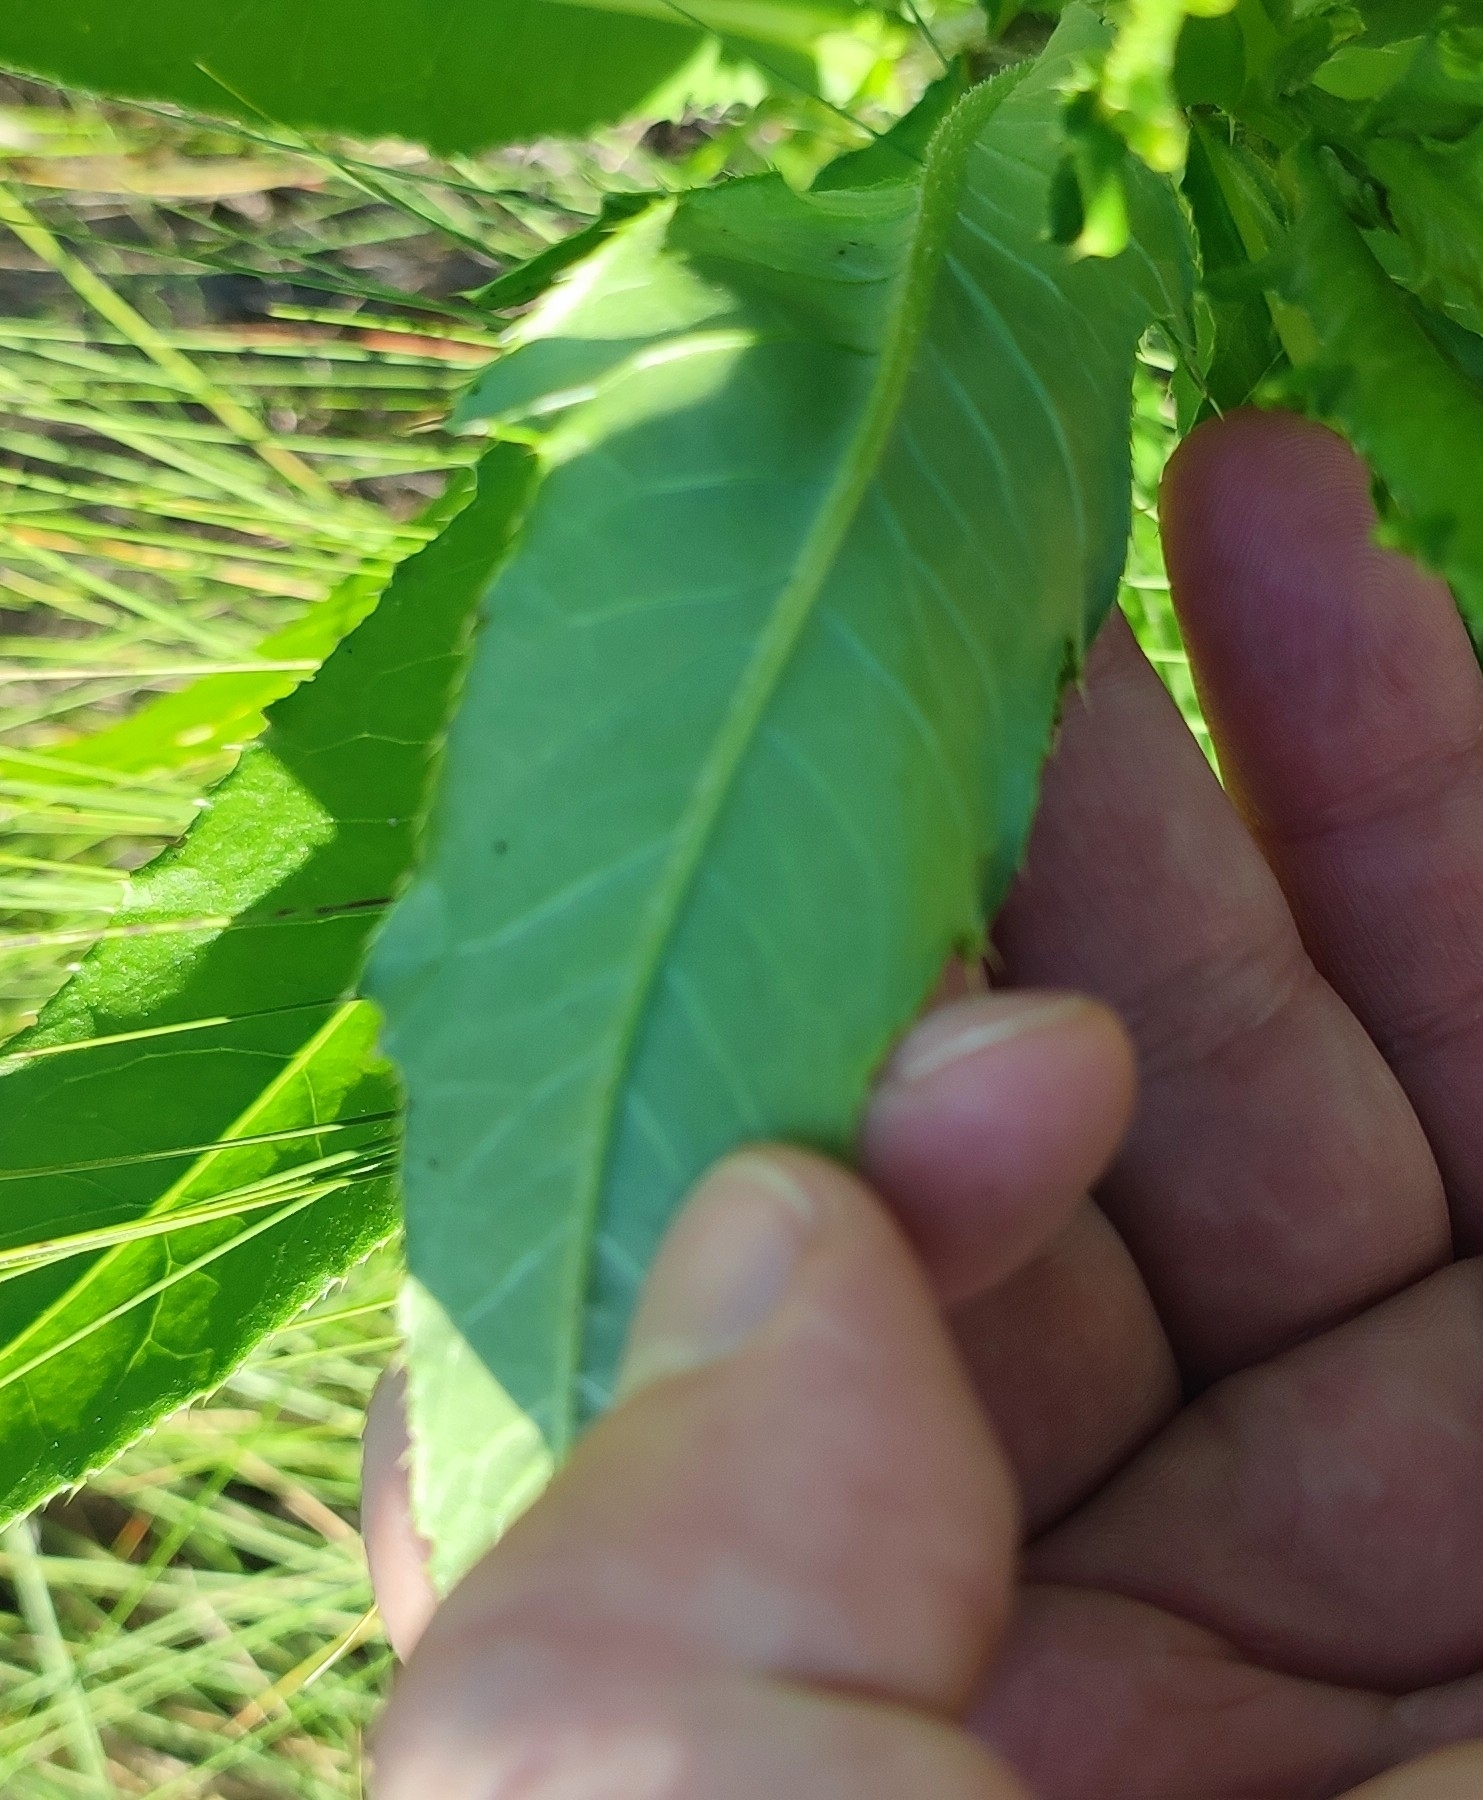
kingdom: Plantae
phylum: Tracheophyta
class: Magnoliopsida
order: Asterales
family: Asteraceae
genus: Cirsium
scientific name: Cirsium arvense
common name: Creeping thistle
